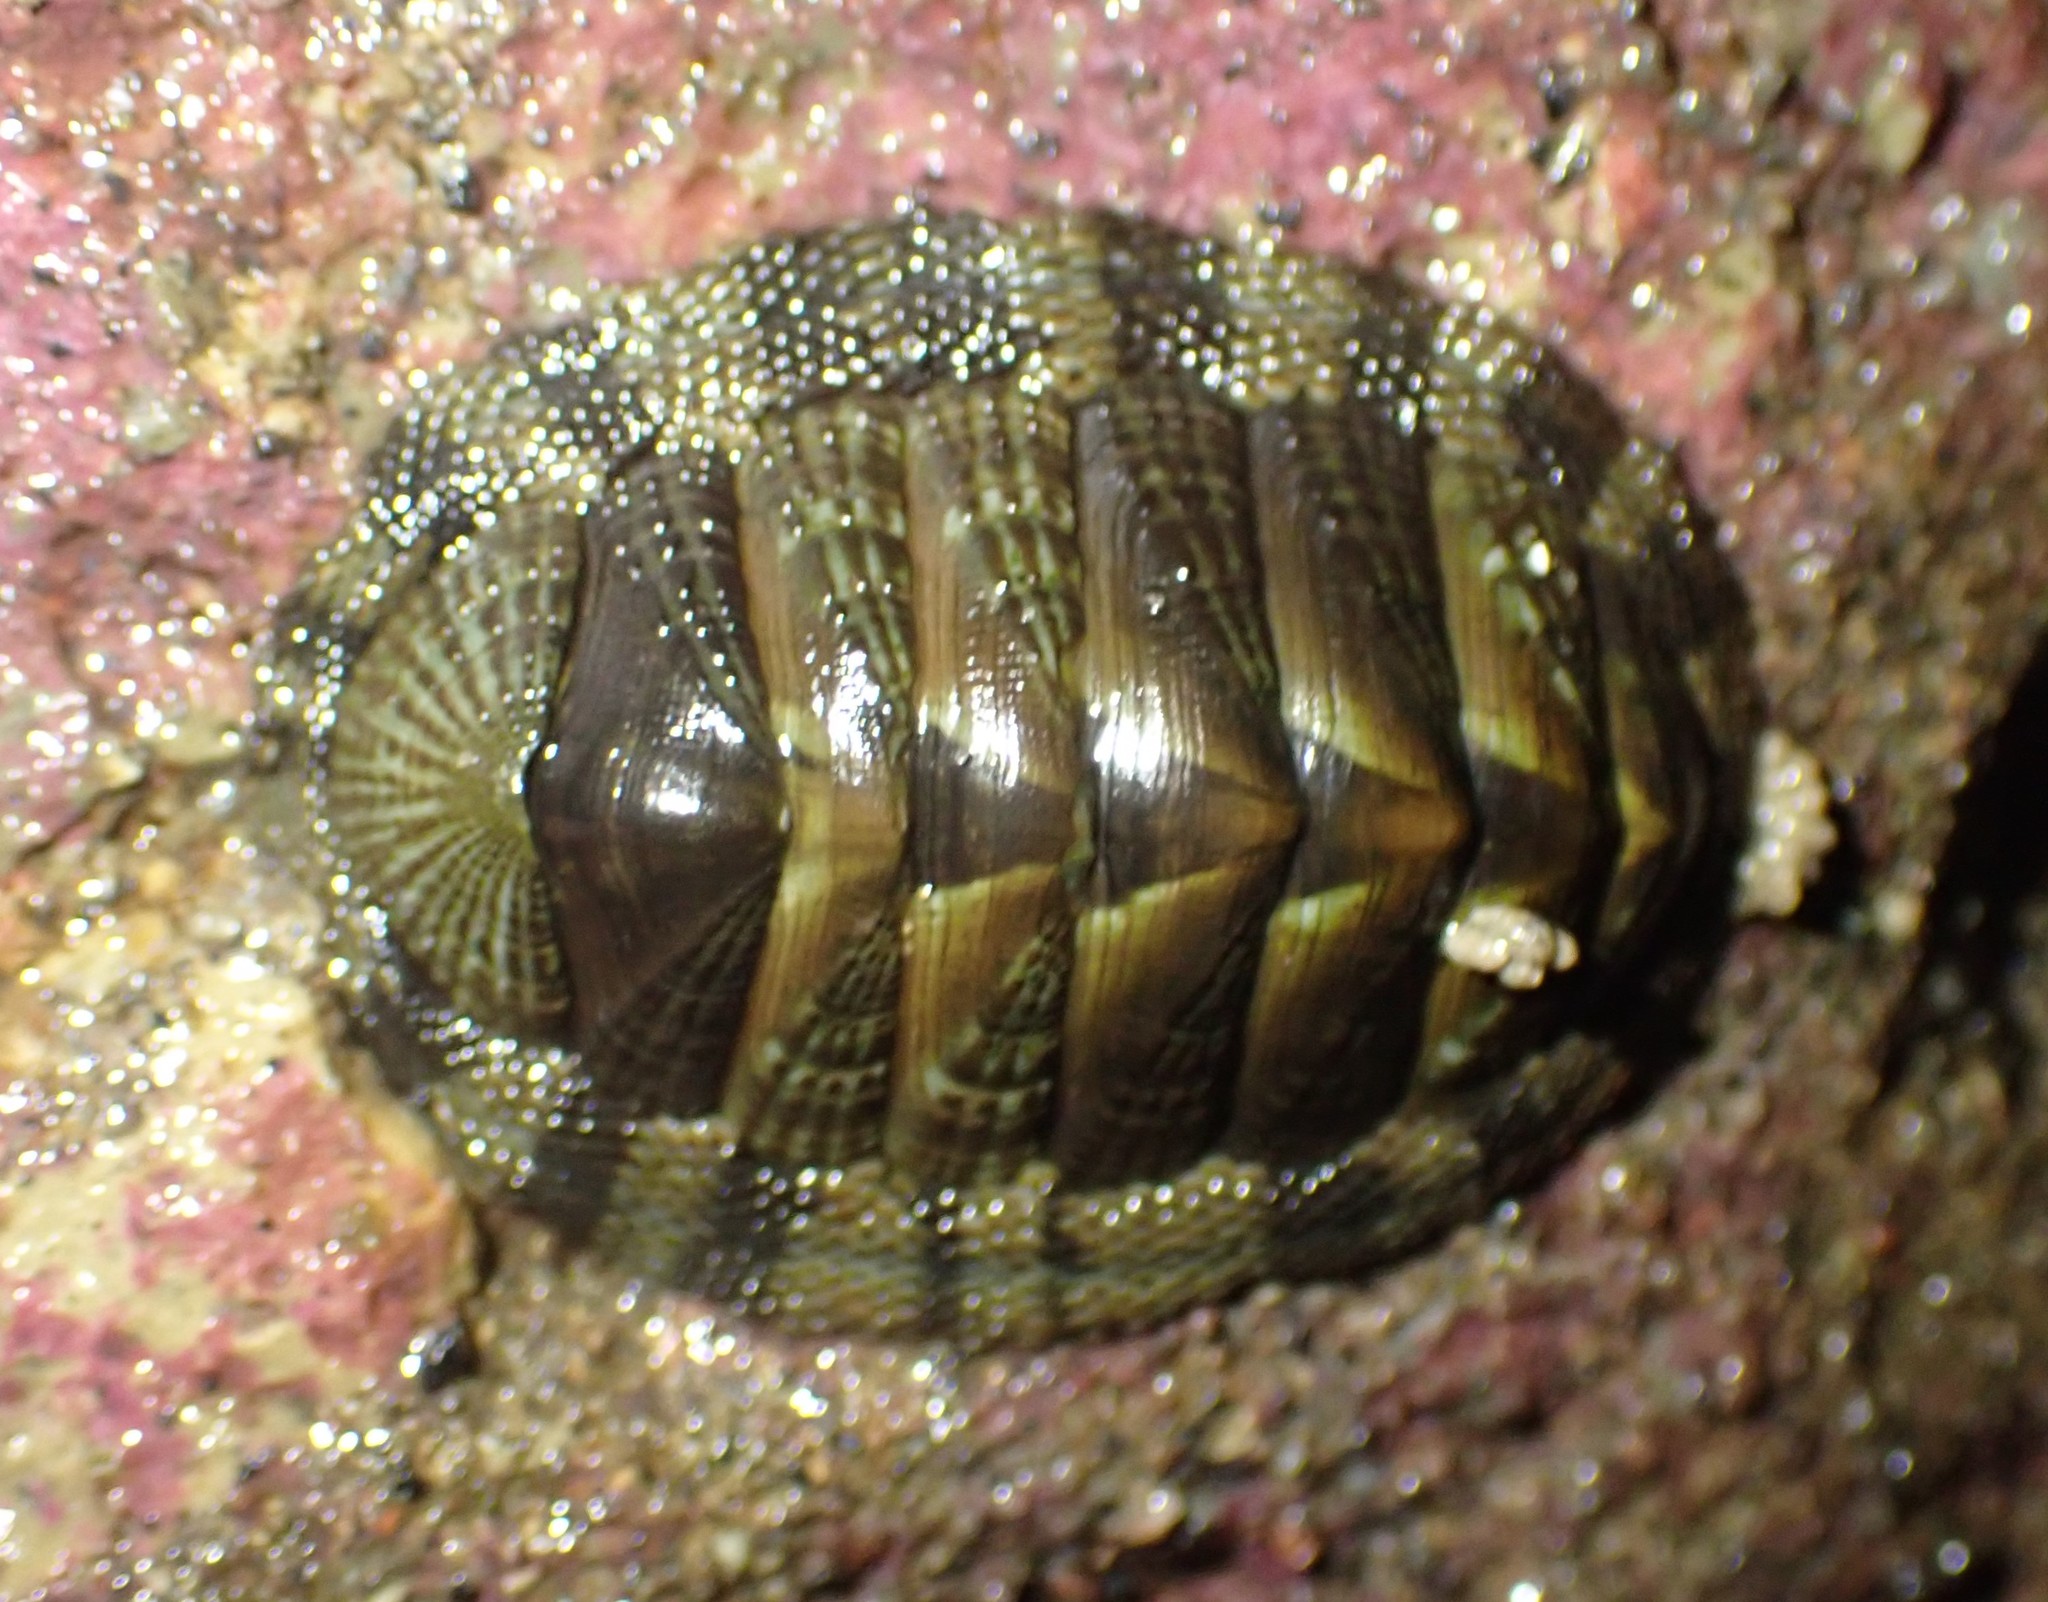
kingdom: Animalia
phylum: Mollusca
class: Polyplacophora
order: Chitonida
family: Chitonidae
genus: Sypharochiton
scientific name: Sypharochiton pelliserpentis
